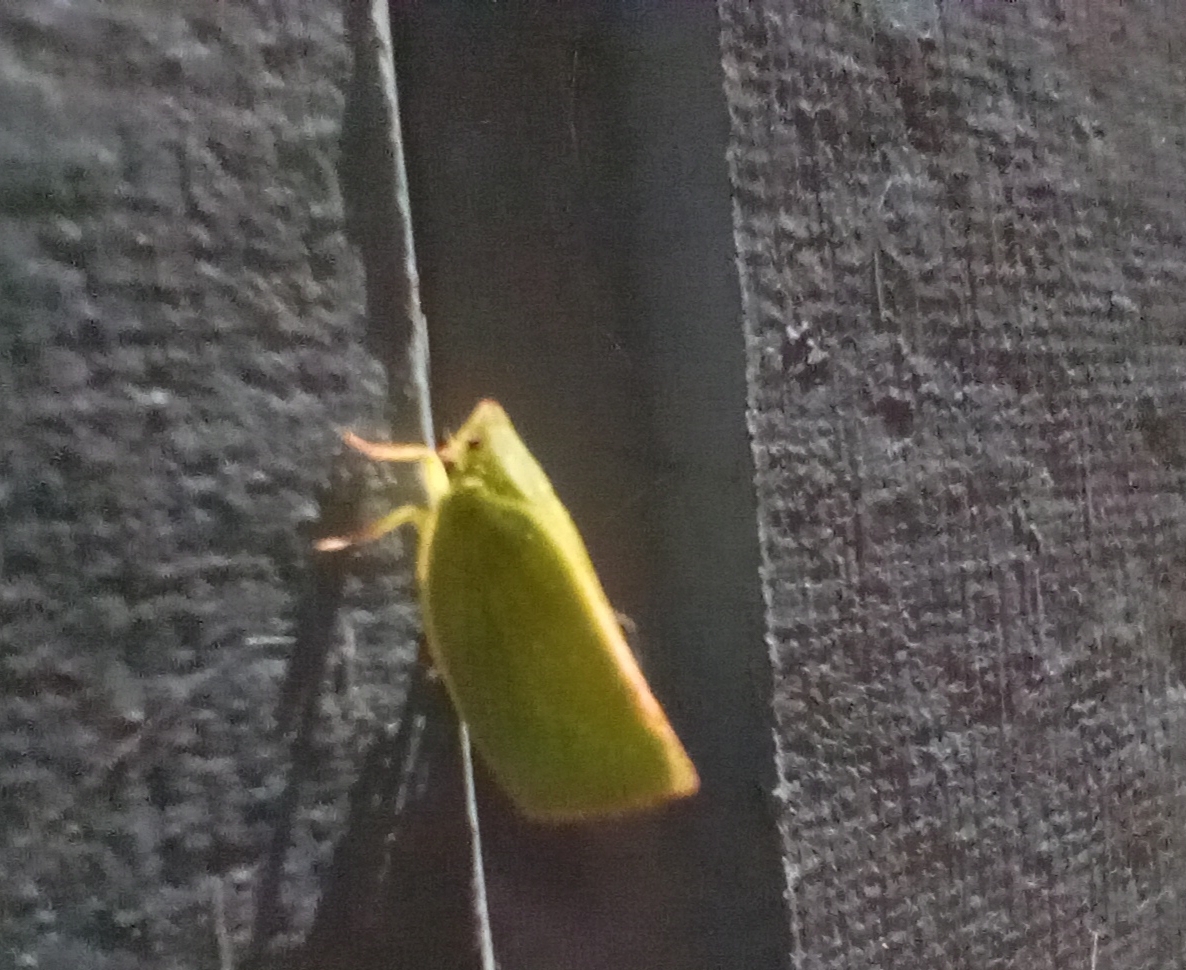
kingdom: Animalia
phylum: Arthropoda
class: Insecta
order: Hemiptera
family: Flatidae
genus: Siphanta
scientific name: Siphanta acuta
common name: Torpedo bug
